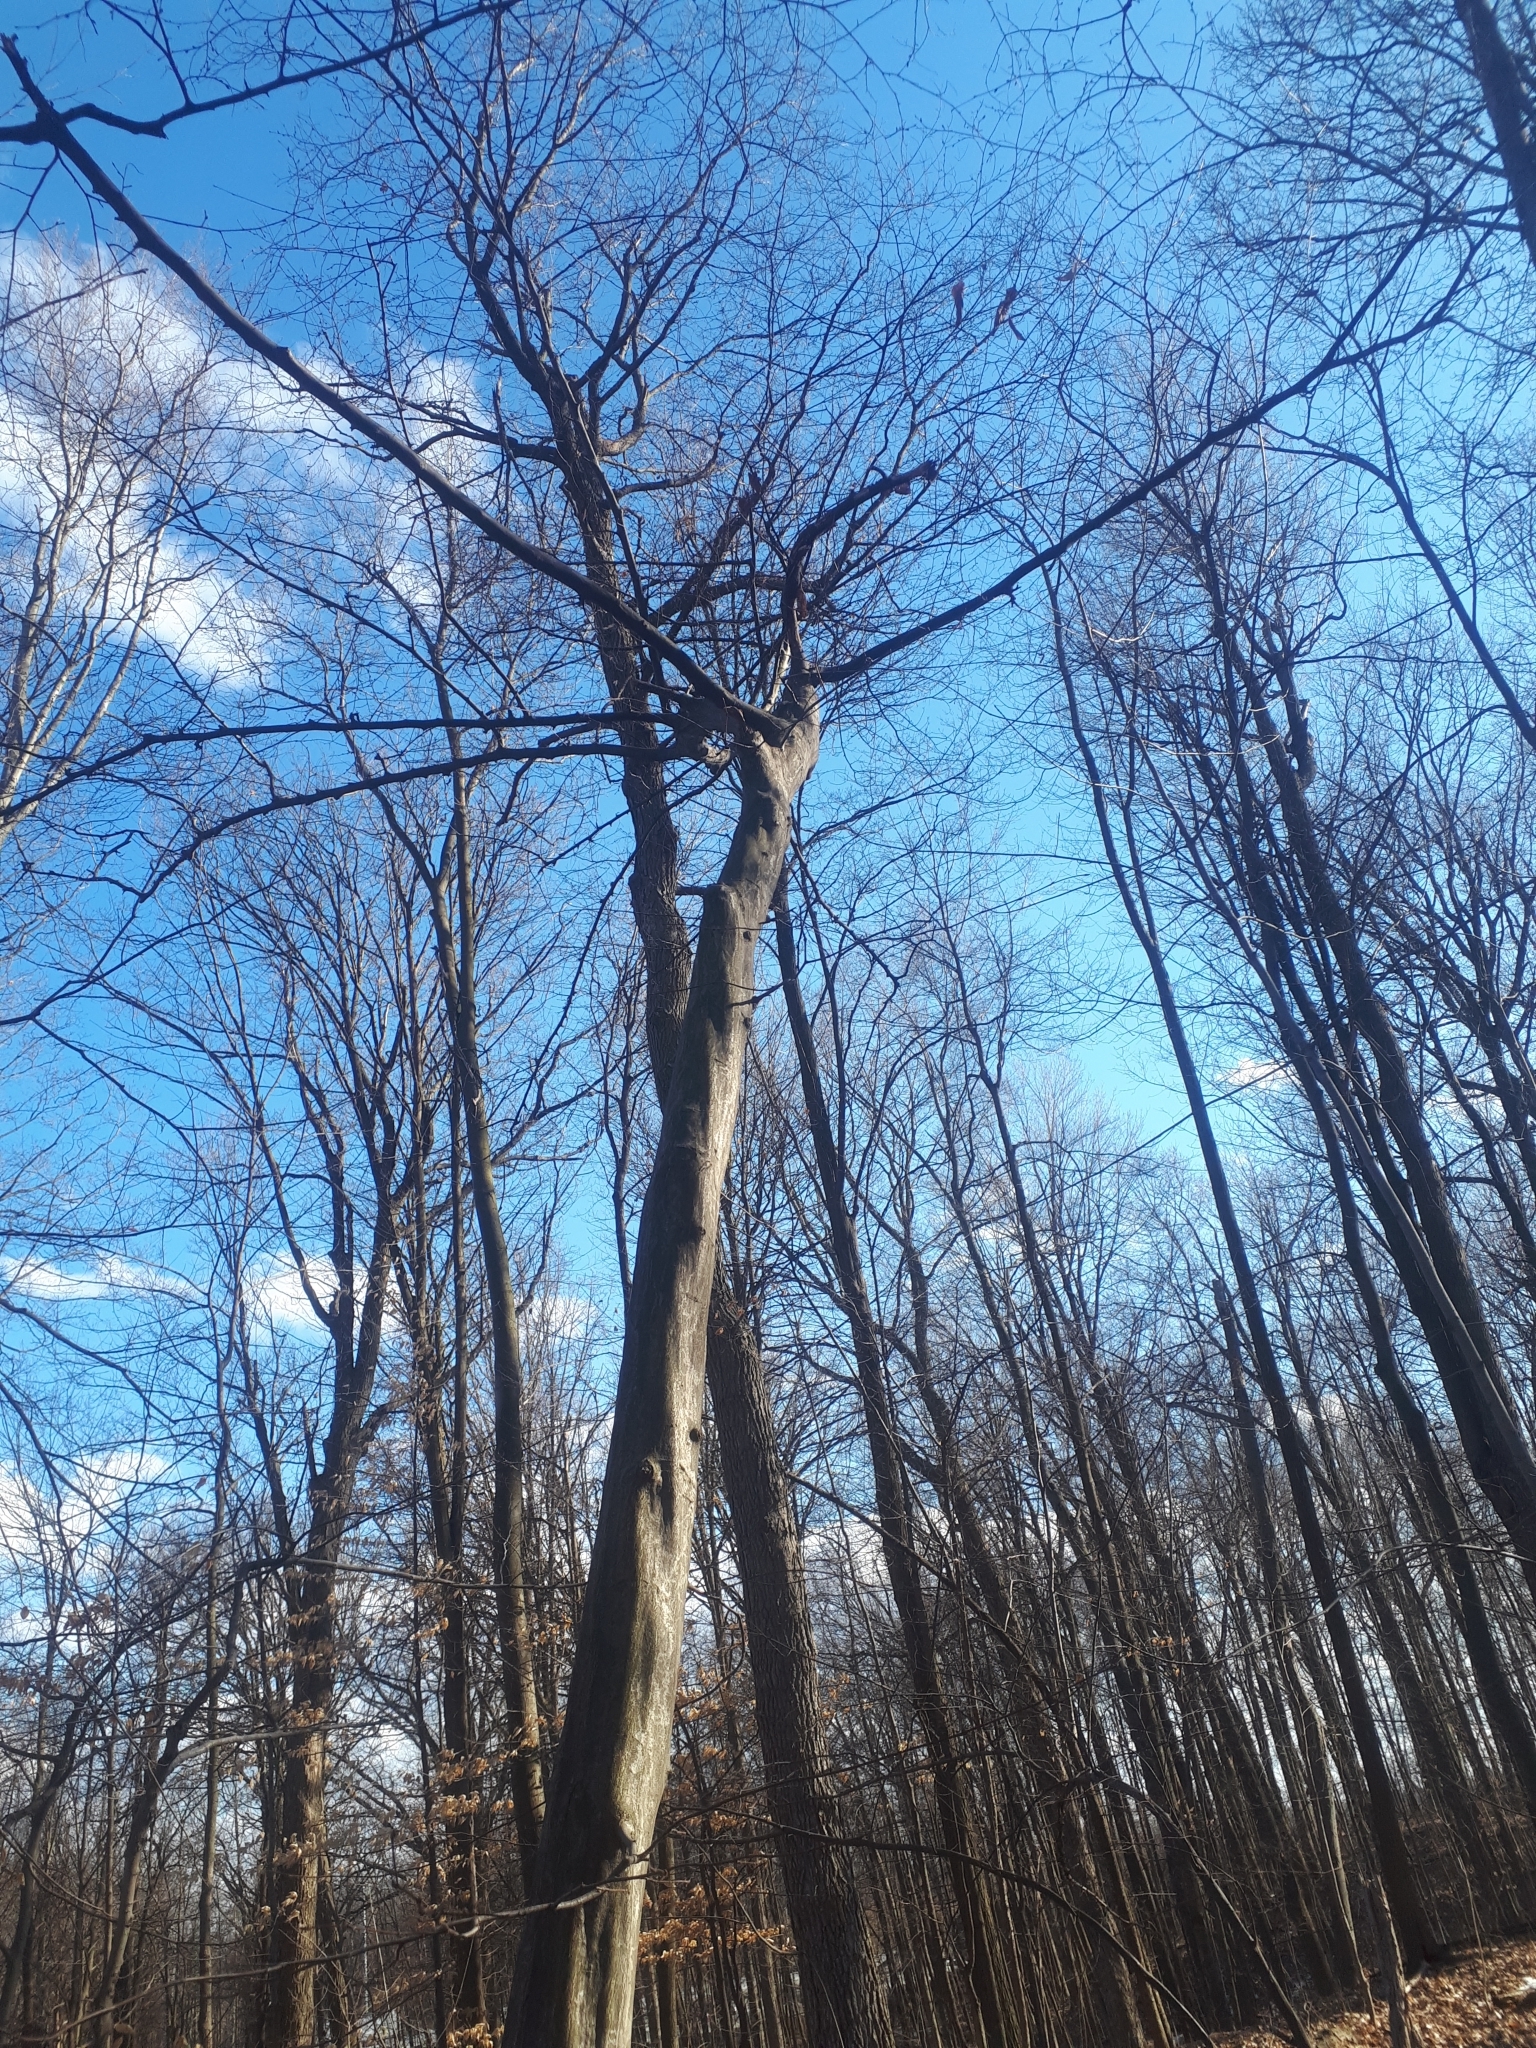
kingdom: Plantae
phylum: Tracheophyta
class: Magnoliopsida
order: Fagales
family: Betulaceae
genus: Carpinus
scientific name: Carpinus caroliniana
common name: American hornbeam
